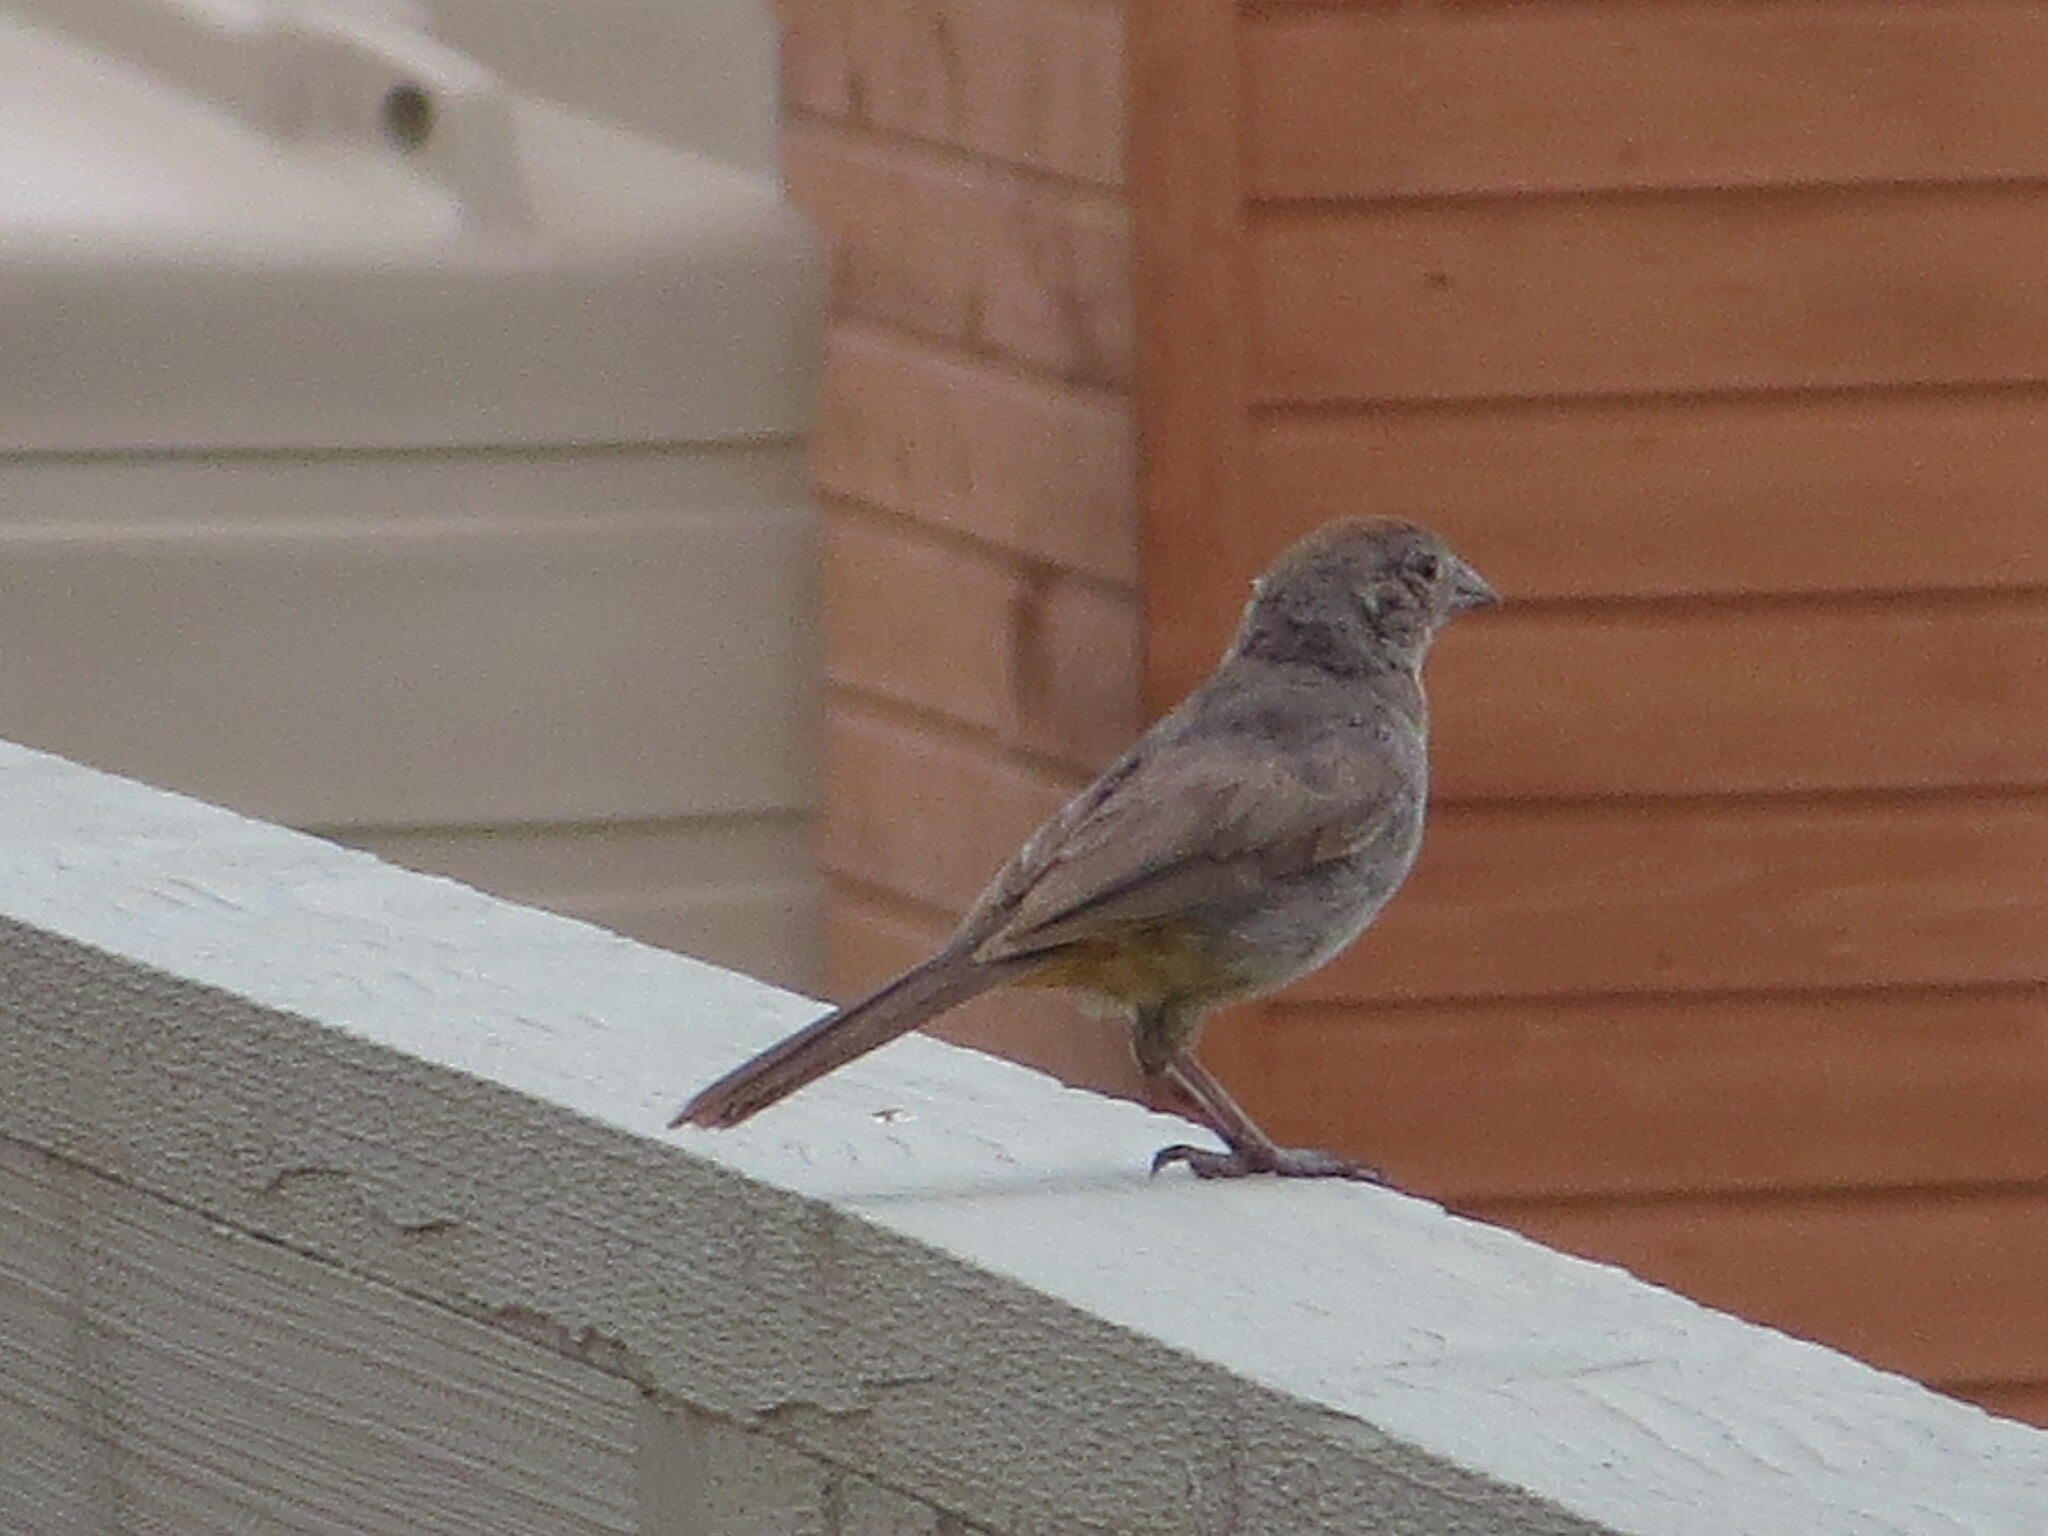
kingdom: Animalia
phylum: Chordata
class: Aves
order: Passeriformes
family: Passerellidae
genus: Melozone
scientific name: Melozone fusca
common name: Canyon towhee
